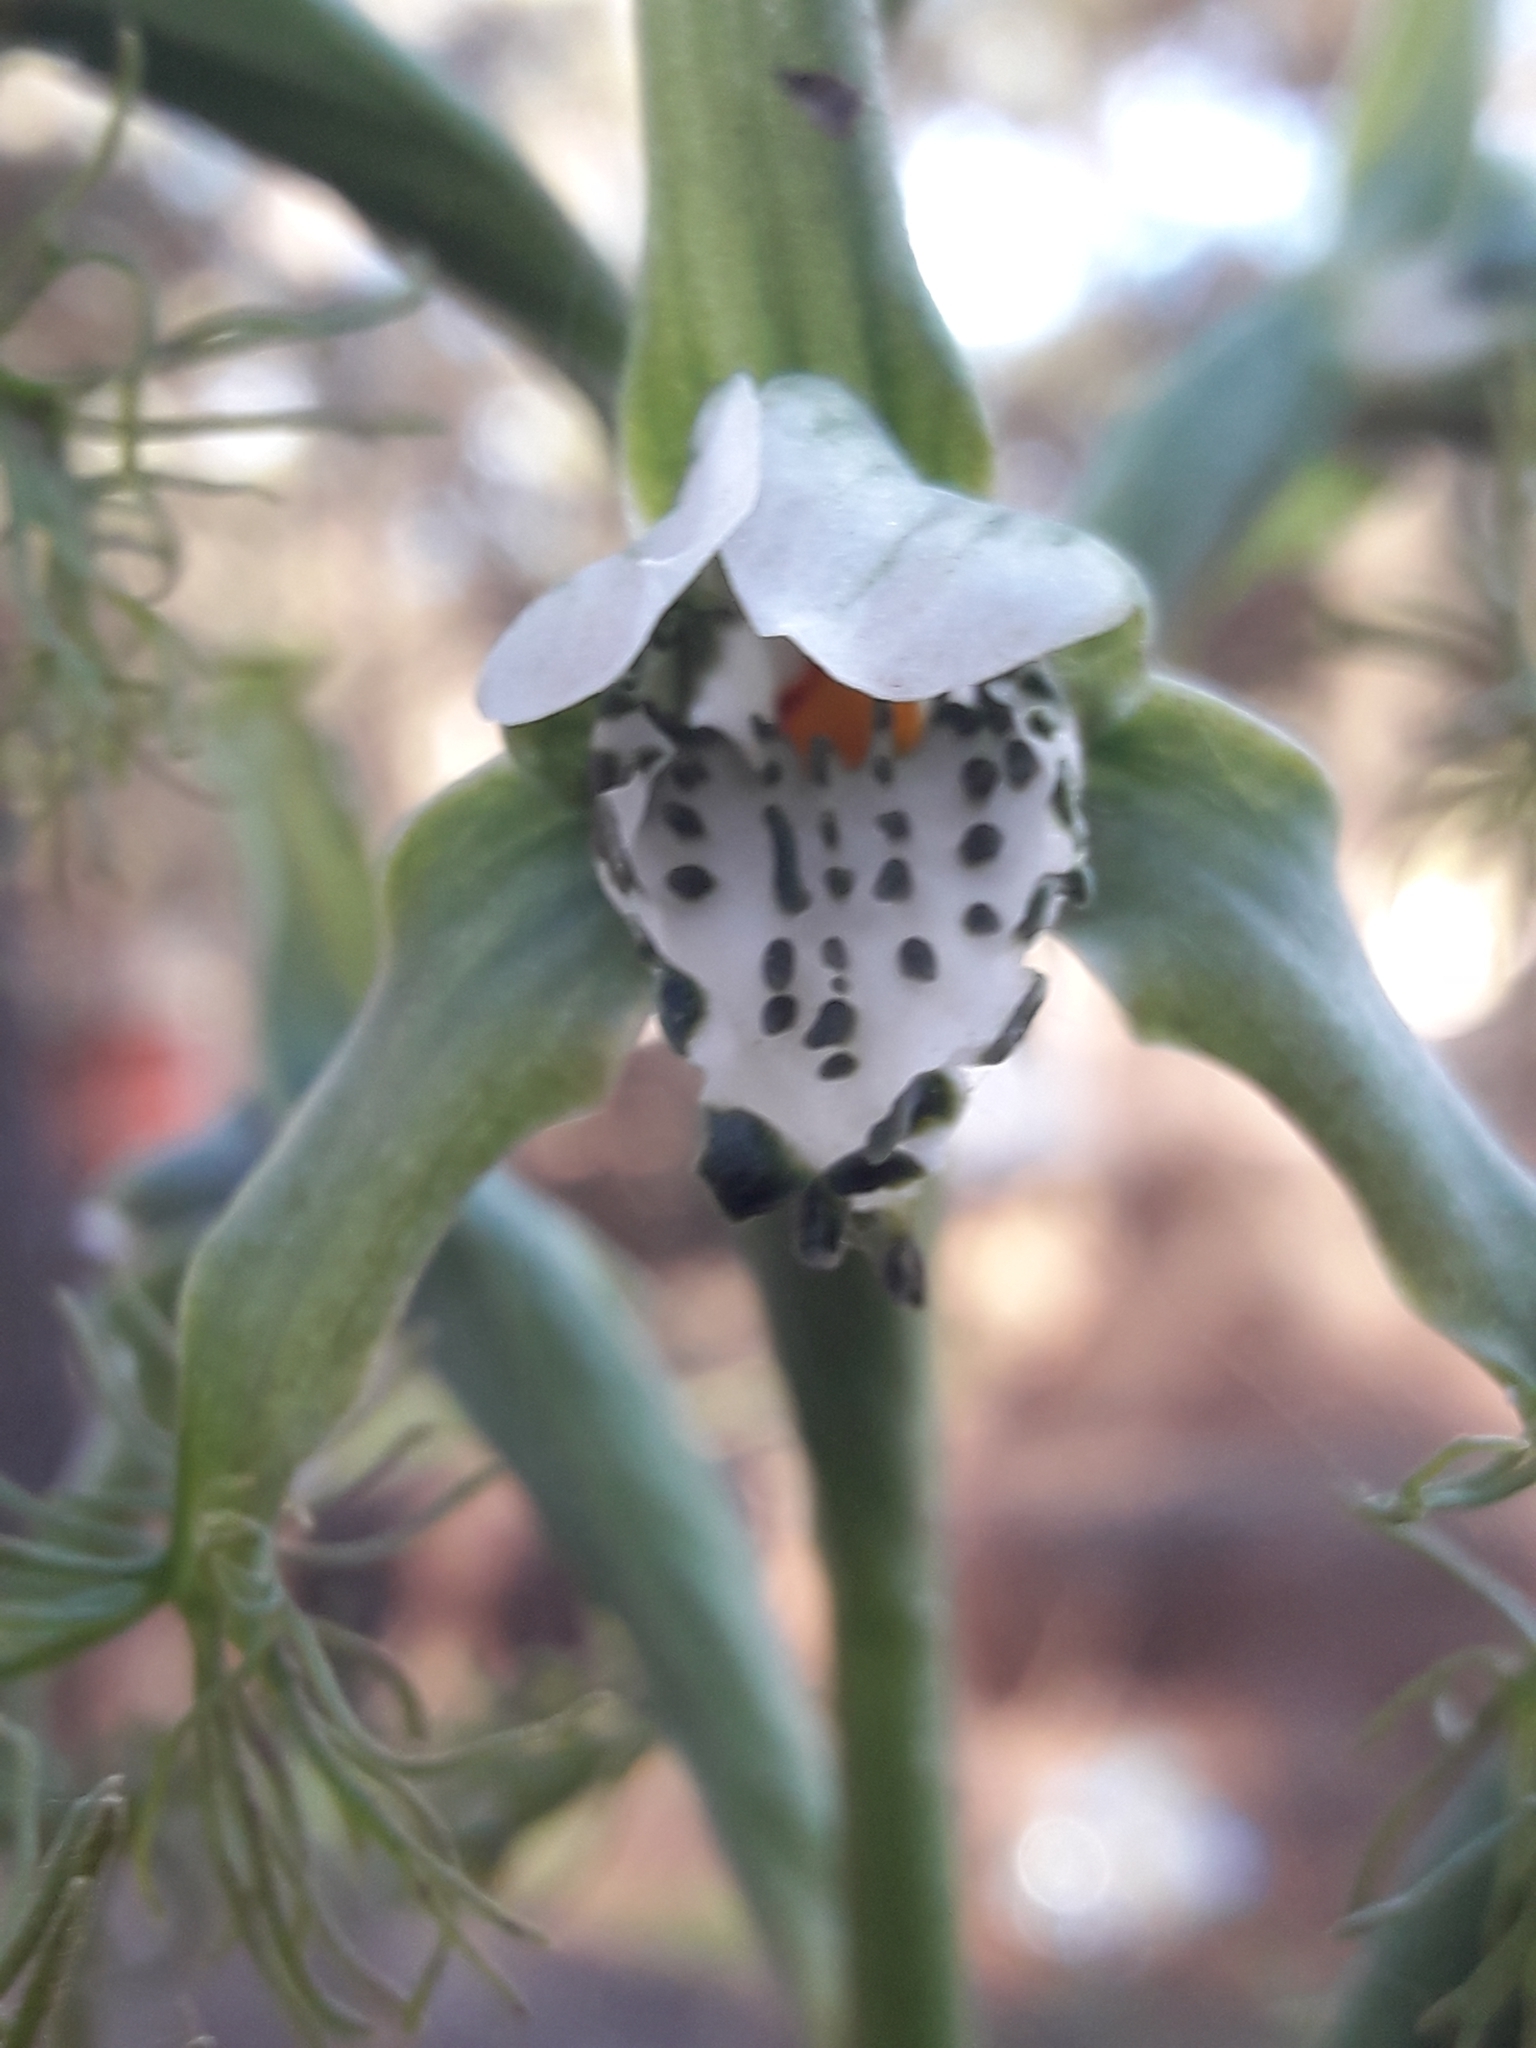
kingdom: Plantae
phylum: Tracheophyta
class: Liliopsida
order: Asparagales
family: Orchidaceae
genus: Bipinnula
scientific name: Bipinnula fimbriata
